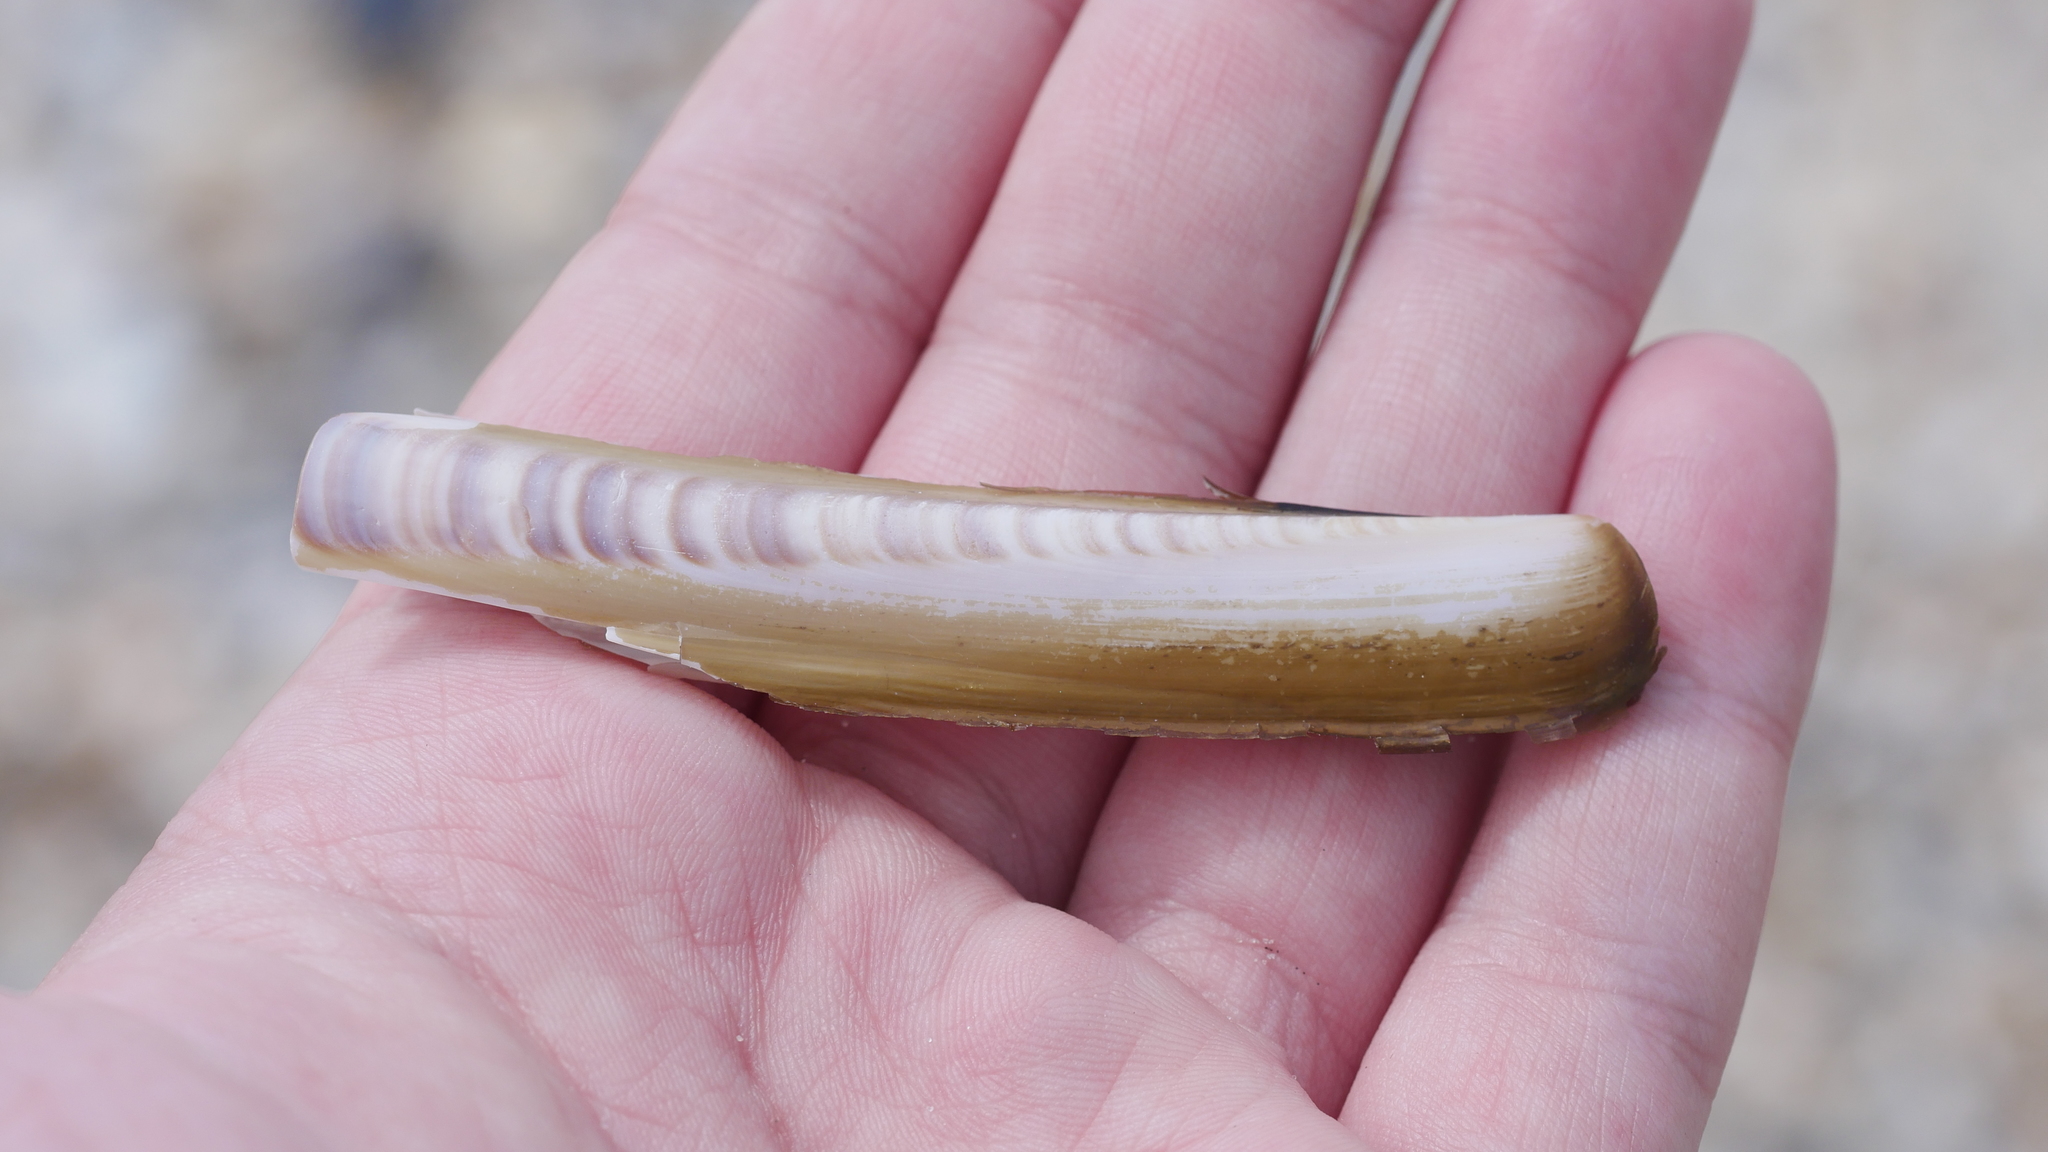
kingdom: Animalia
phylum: Mollusca
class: Bivalvia
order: Adapedonta
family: Pharidae
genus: Ensis
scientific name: Ensis leei
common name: American jack knife clam
